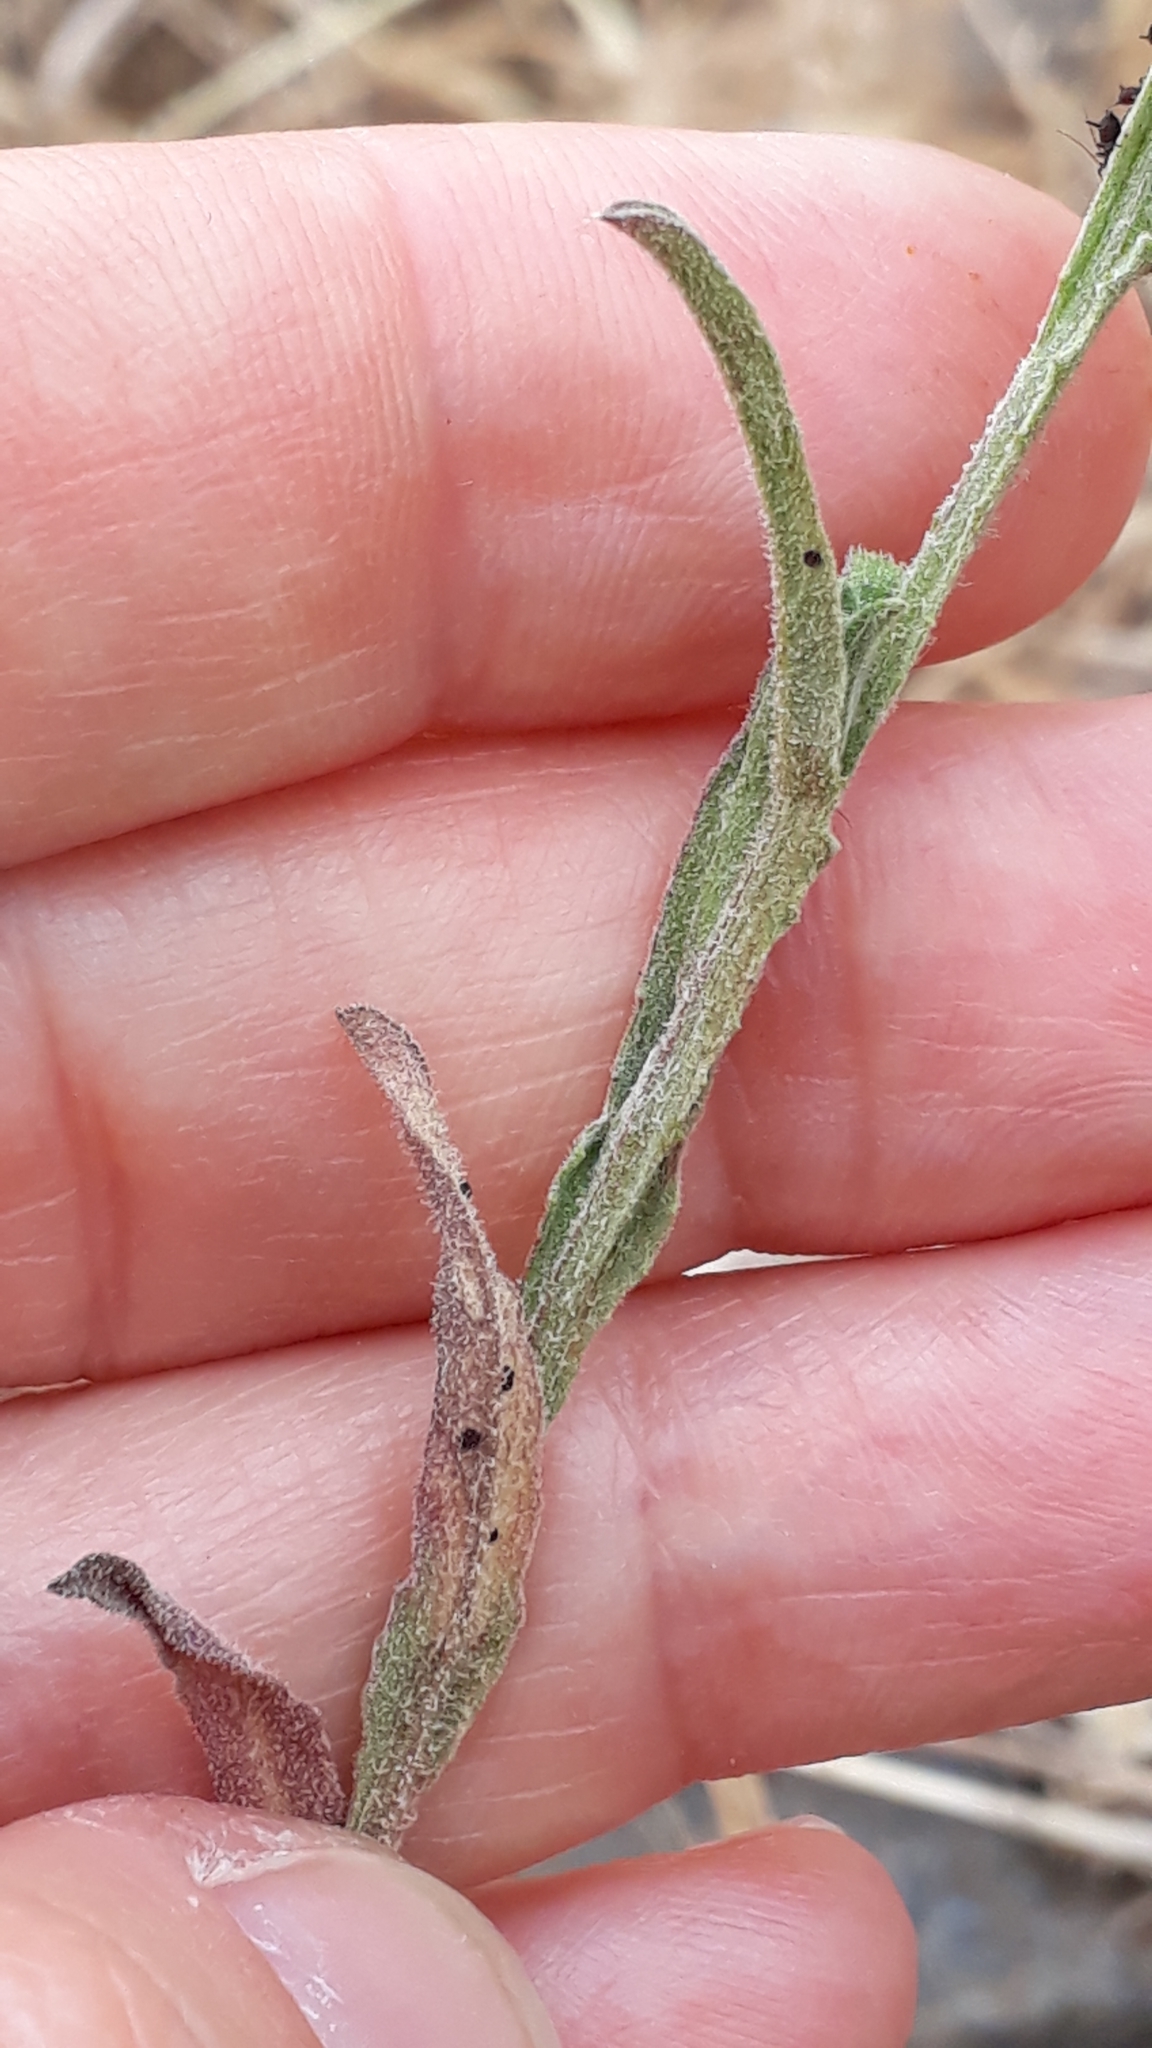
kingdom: Plantae
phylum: Tracheophyta
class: Magnoliopsida
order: Asterales
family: Asteraceae
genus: Centaurea
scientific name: Centaurea melitensis
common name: Maltese star-thistle
